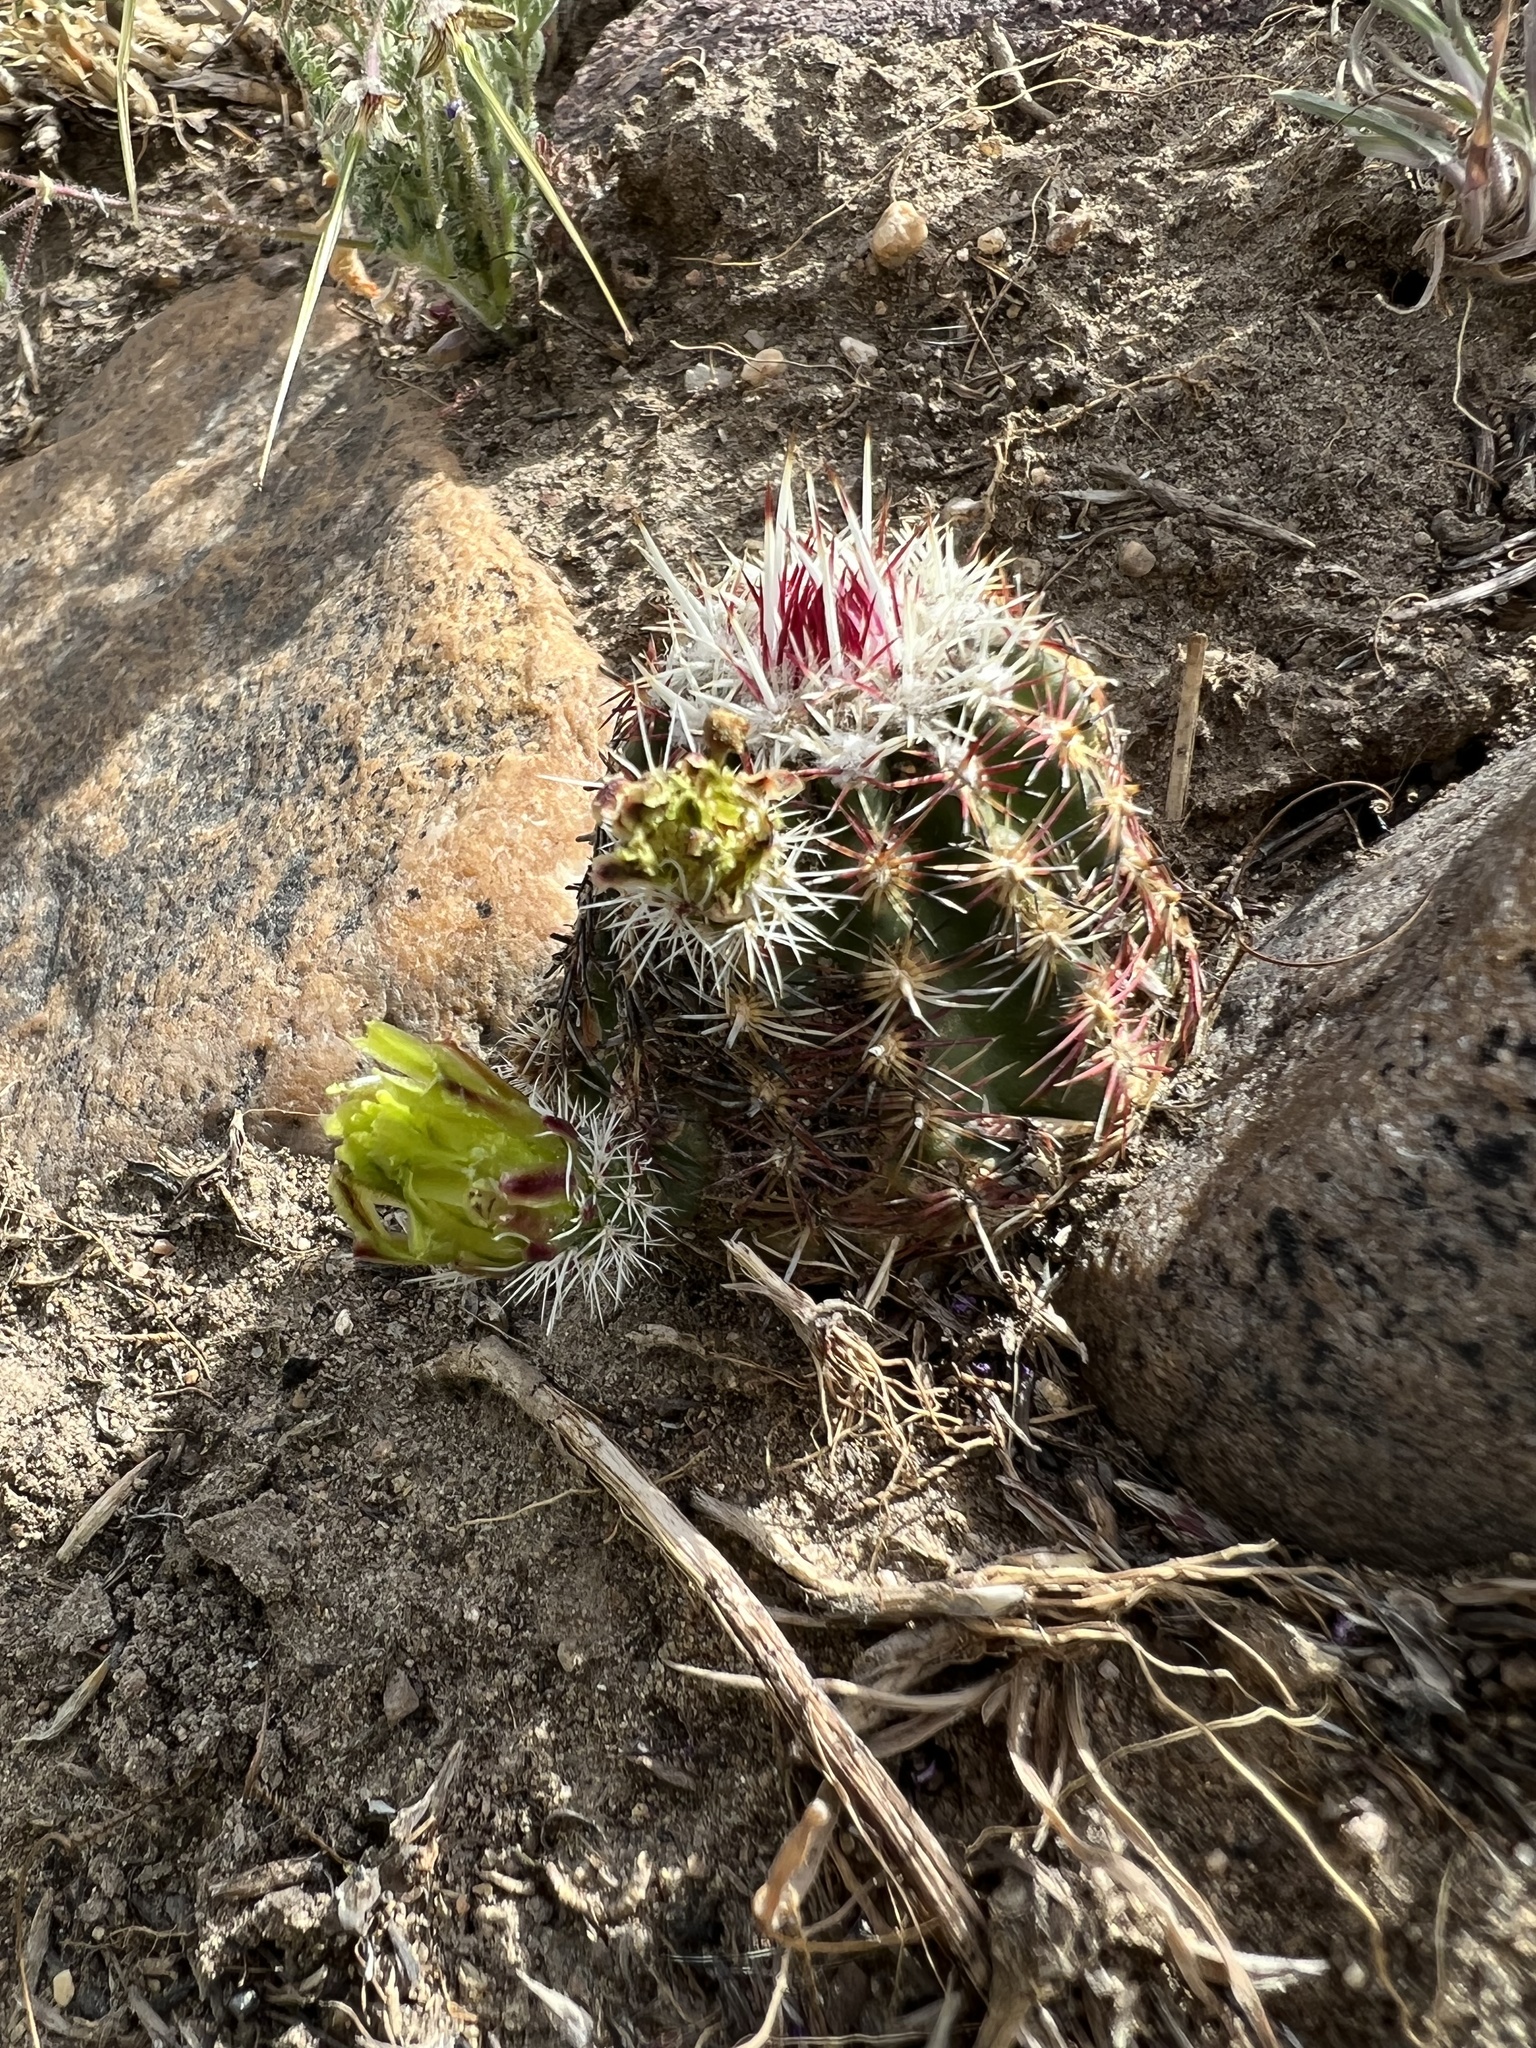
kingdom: Plantae
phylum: Tracheophyta
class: Magnoliopsida
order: Caryophyllales
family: Cactaceae
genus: Echinocereus
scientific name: Echinocereus viridiflorus
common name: Nylon hedgehog cactus
